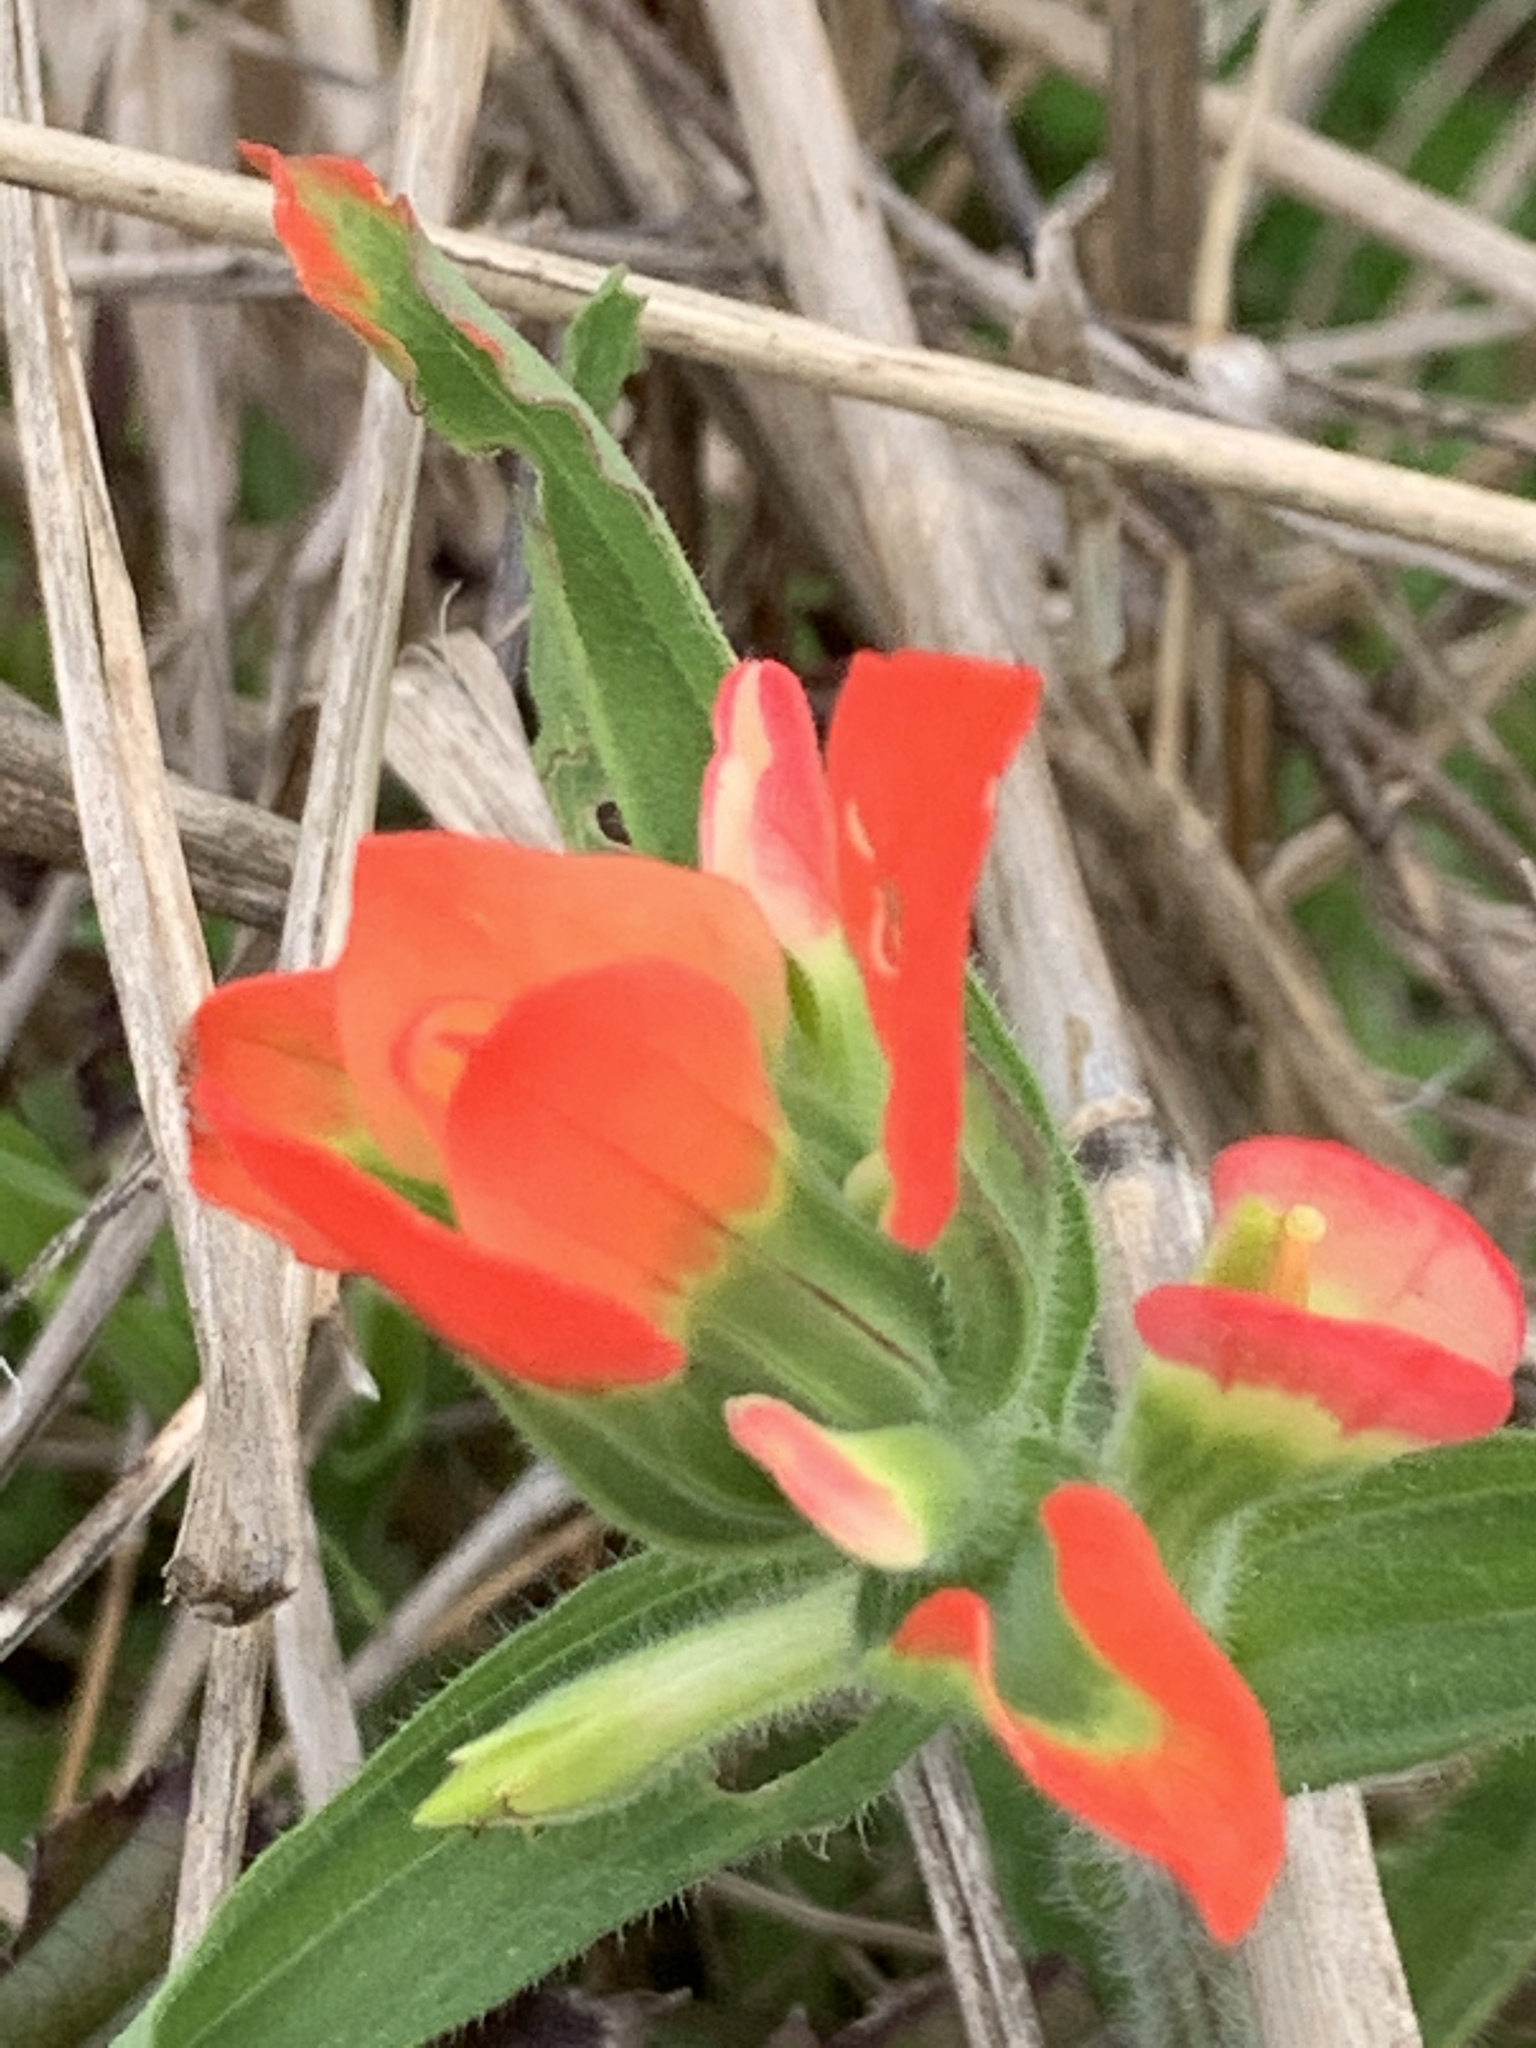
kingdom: Plantae
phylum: Tracheophyta
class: Magnoliopsida
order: Lamiales
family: Orobanchaceae
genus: Castilleja
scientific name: Castilleja indivisa
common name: Texas paintbrush
